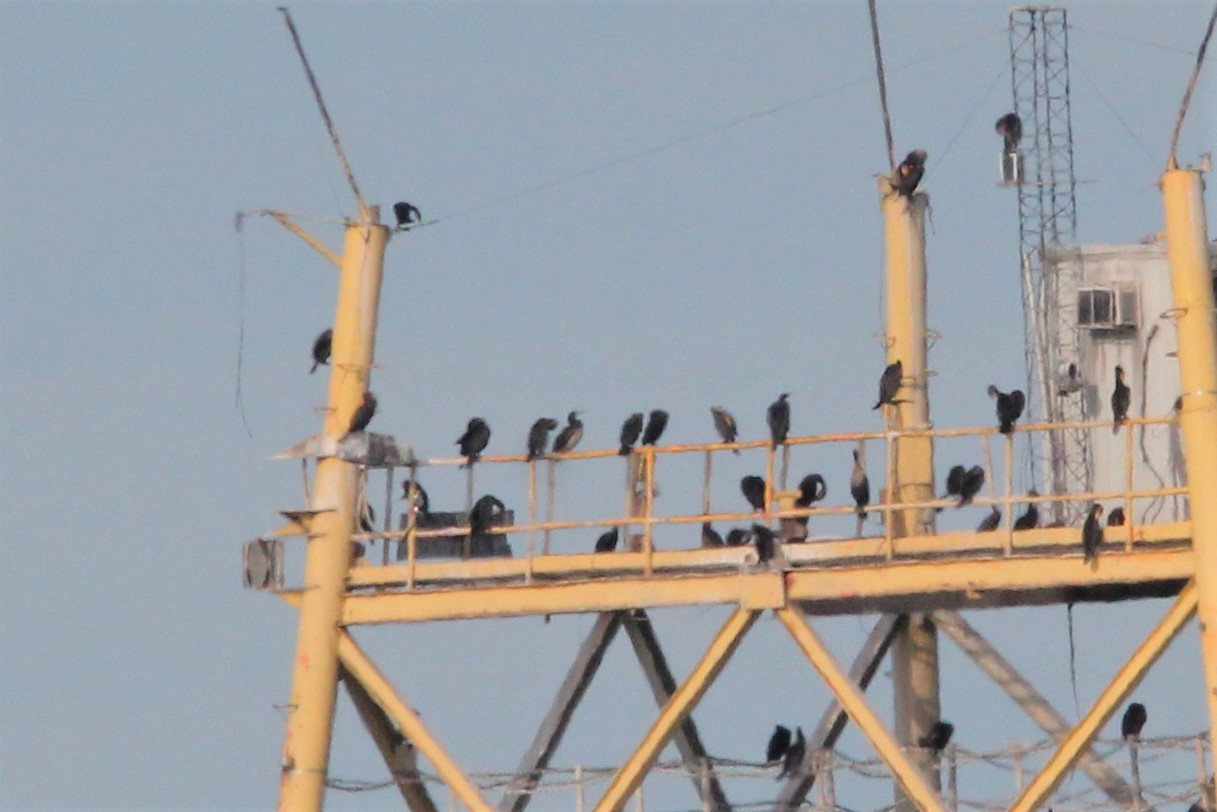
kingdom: Animalia
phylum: Chordata
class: Aves
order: Suliformes
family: Sulidae
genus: Sula
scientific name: Sula leucogaster
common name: Brown booby
